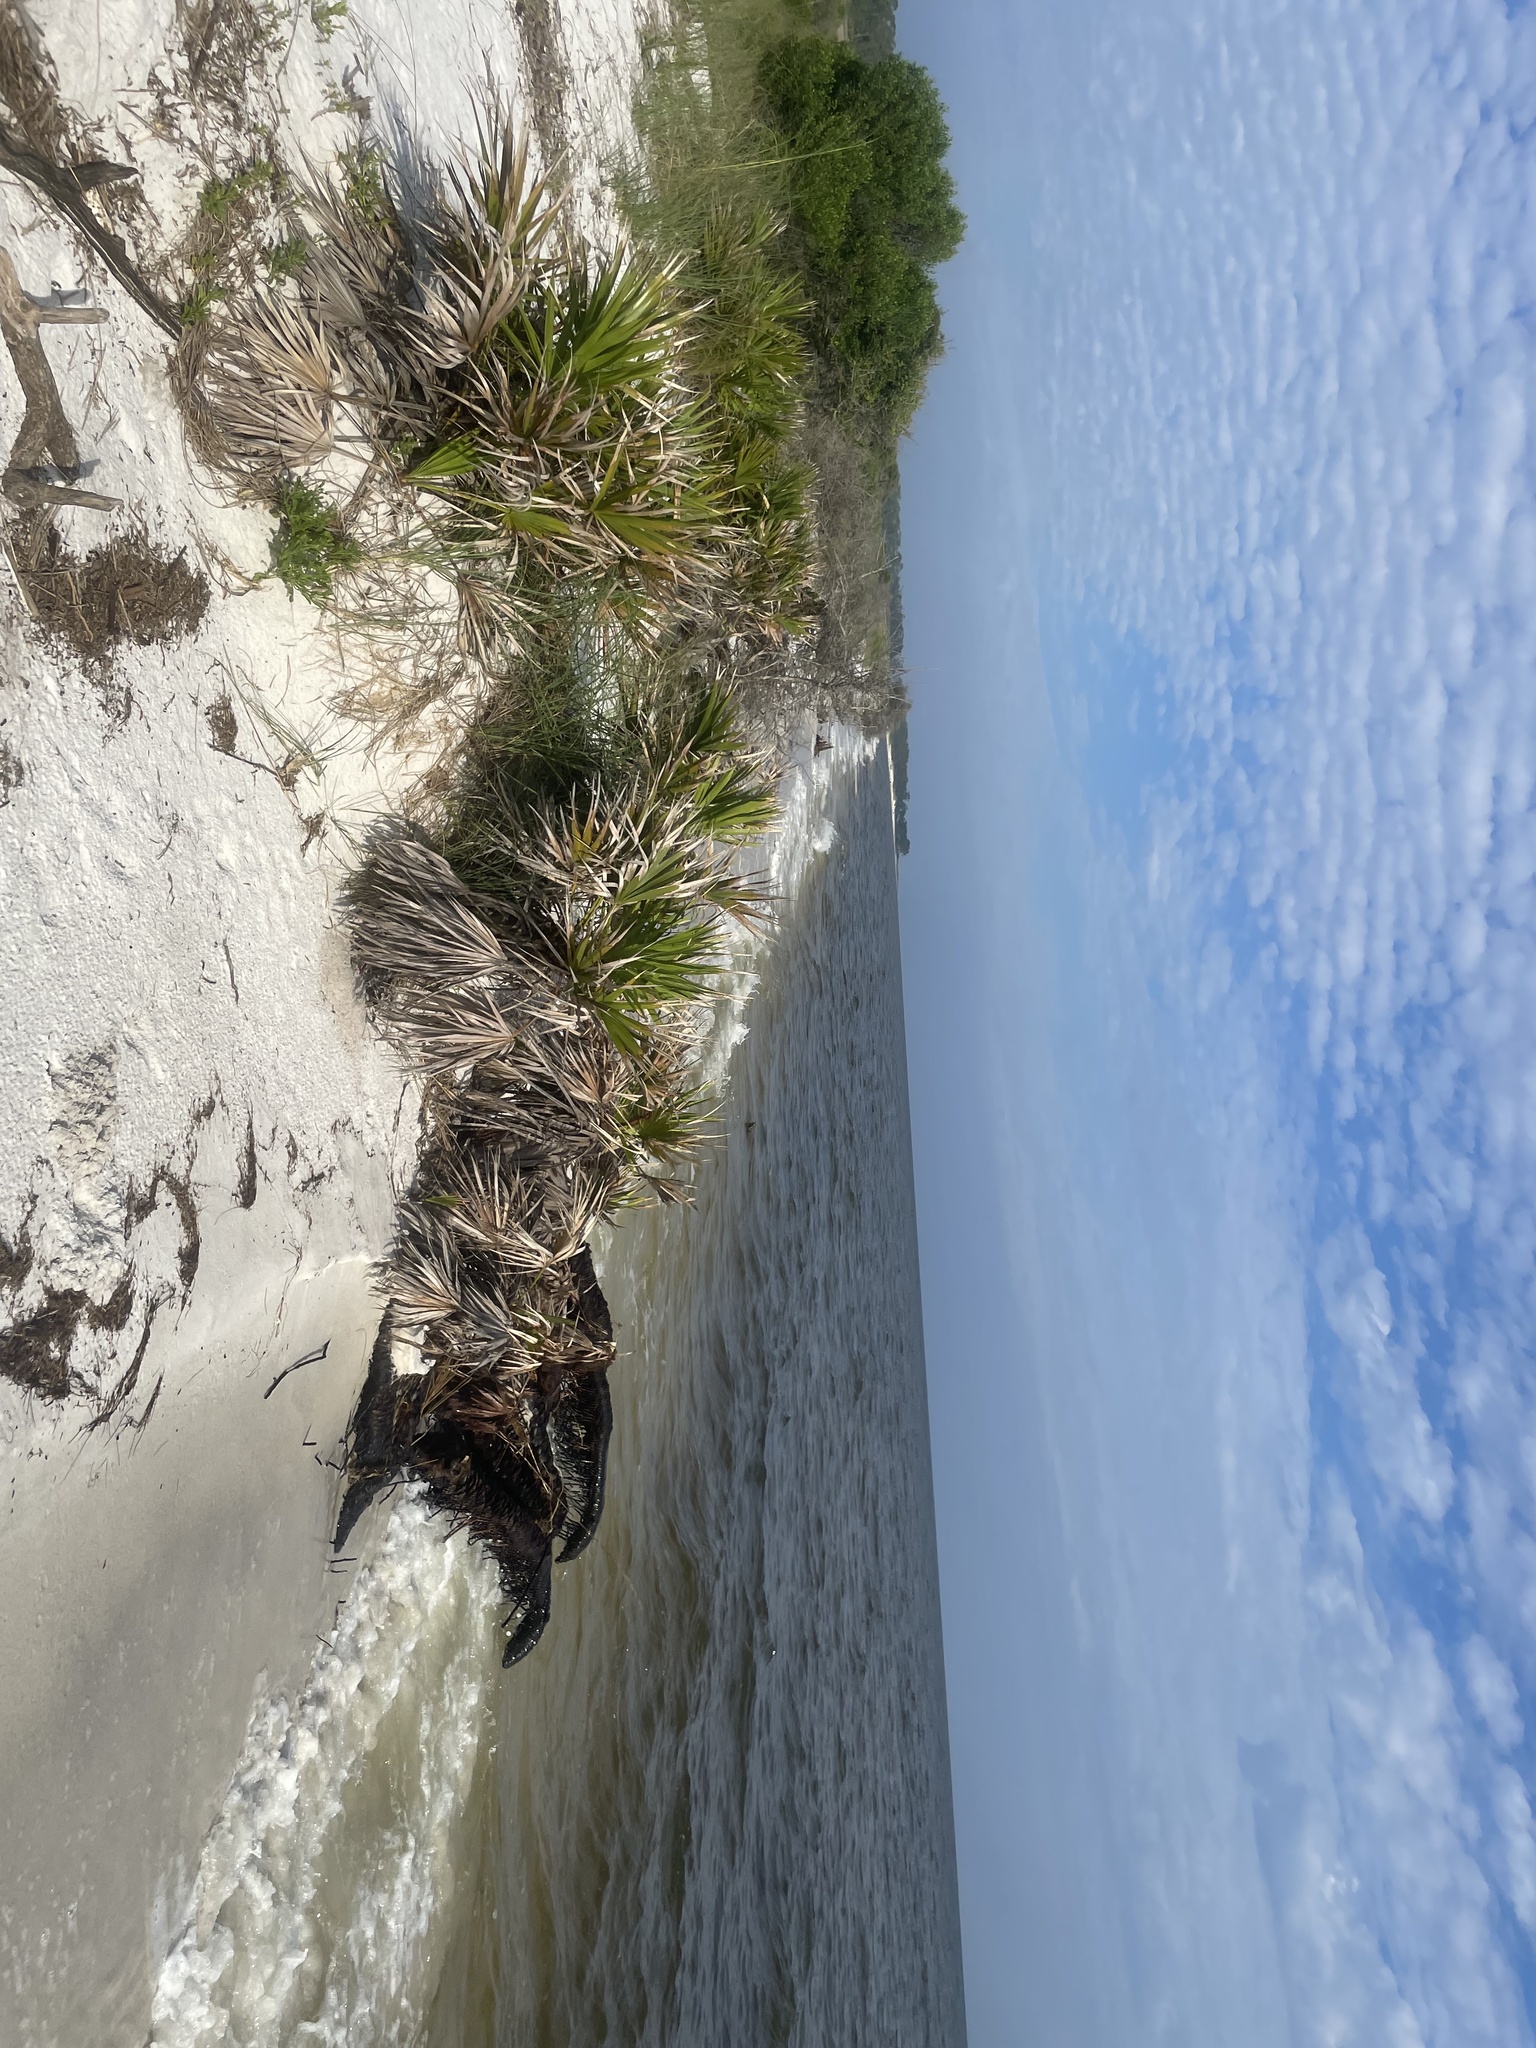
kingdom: Plantae
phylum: Tracheophyta
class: Liliopsida
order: Arecales
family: Arecaceae
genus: Serenoa
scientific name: Serenoa repens
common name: Saw-palmetto
